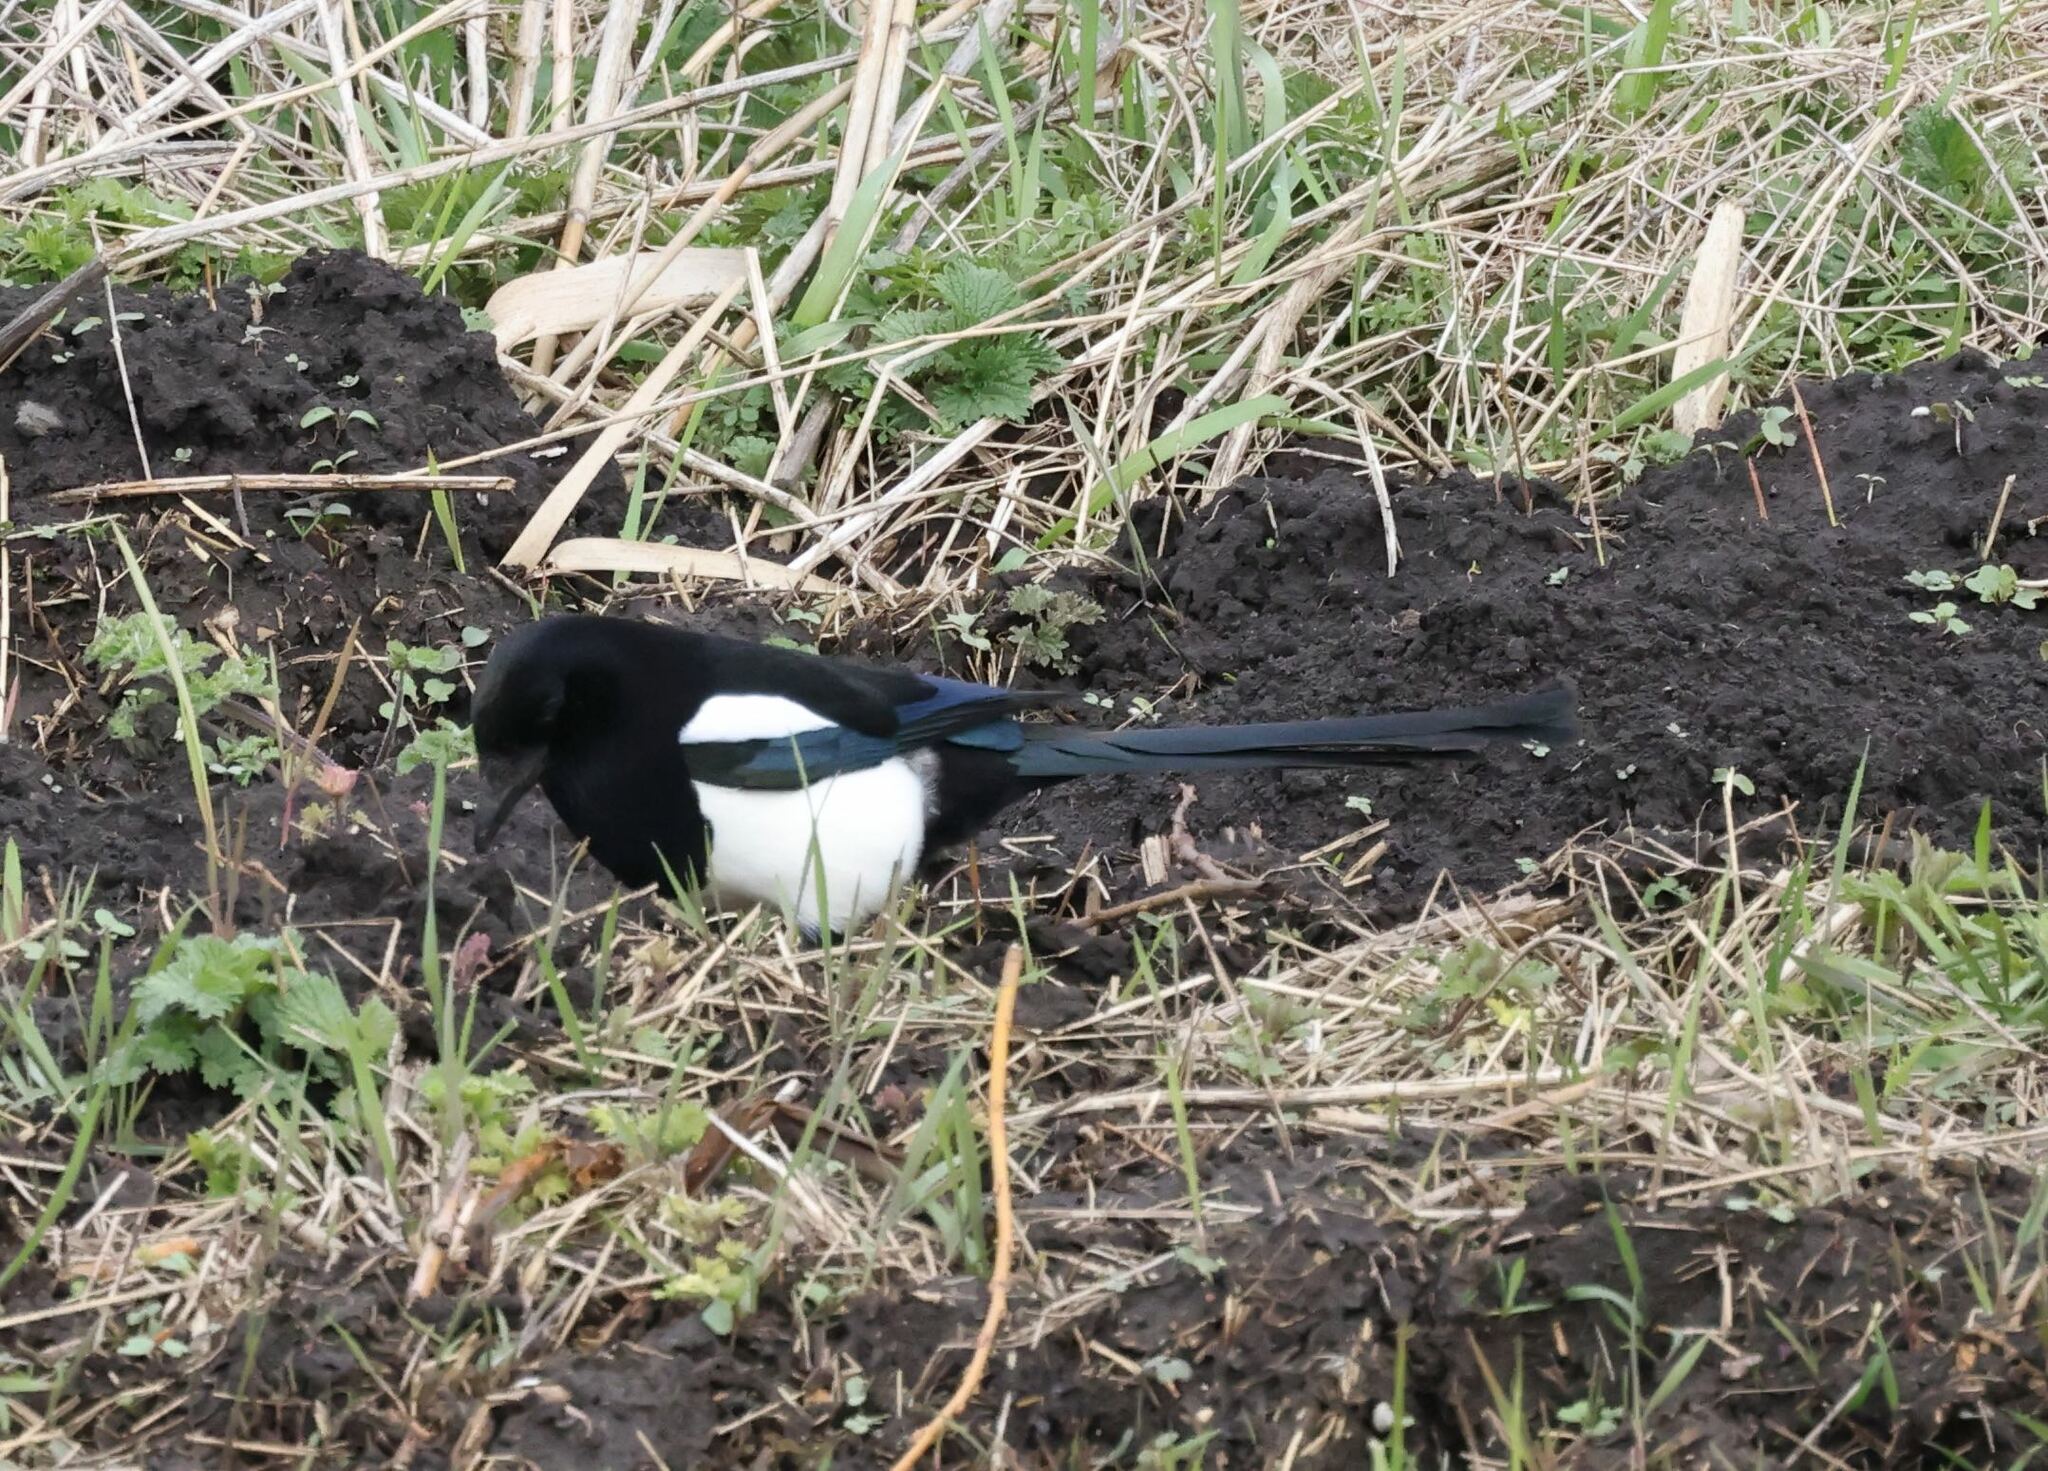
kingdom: Animalia
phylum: Chordata
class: Aves
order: Passeriformes
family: Corvidae
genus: Pica
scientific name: Pica pica
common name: Eurasian magpie
